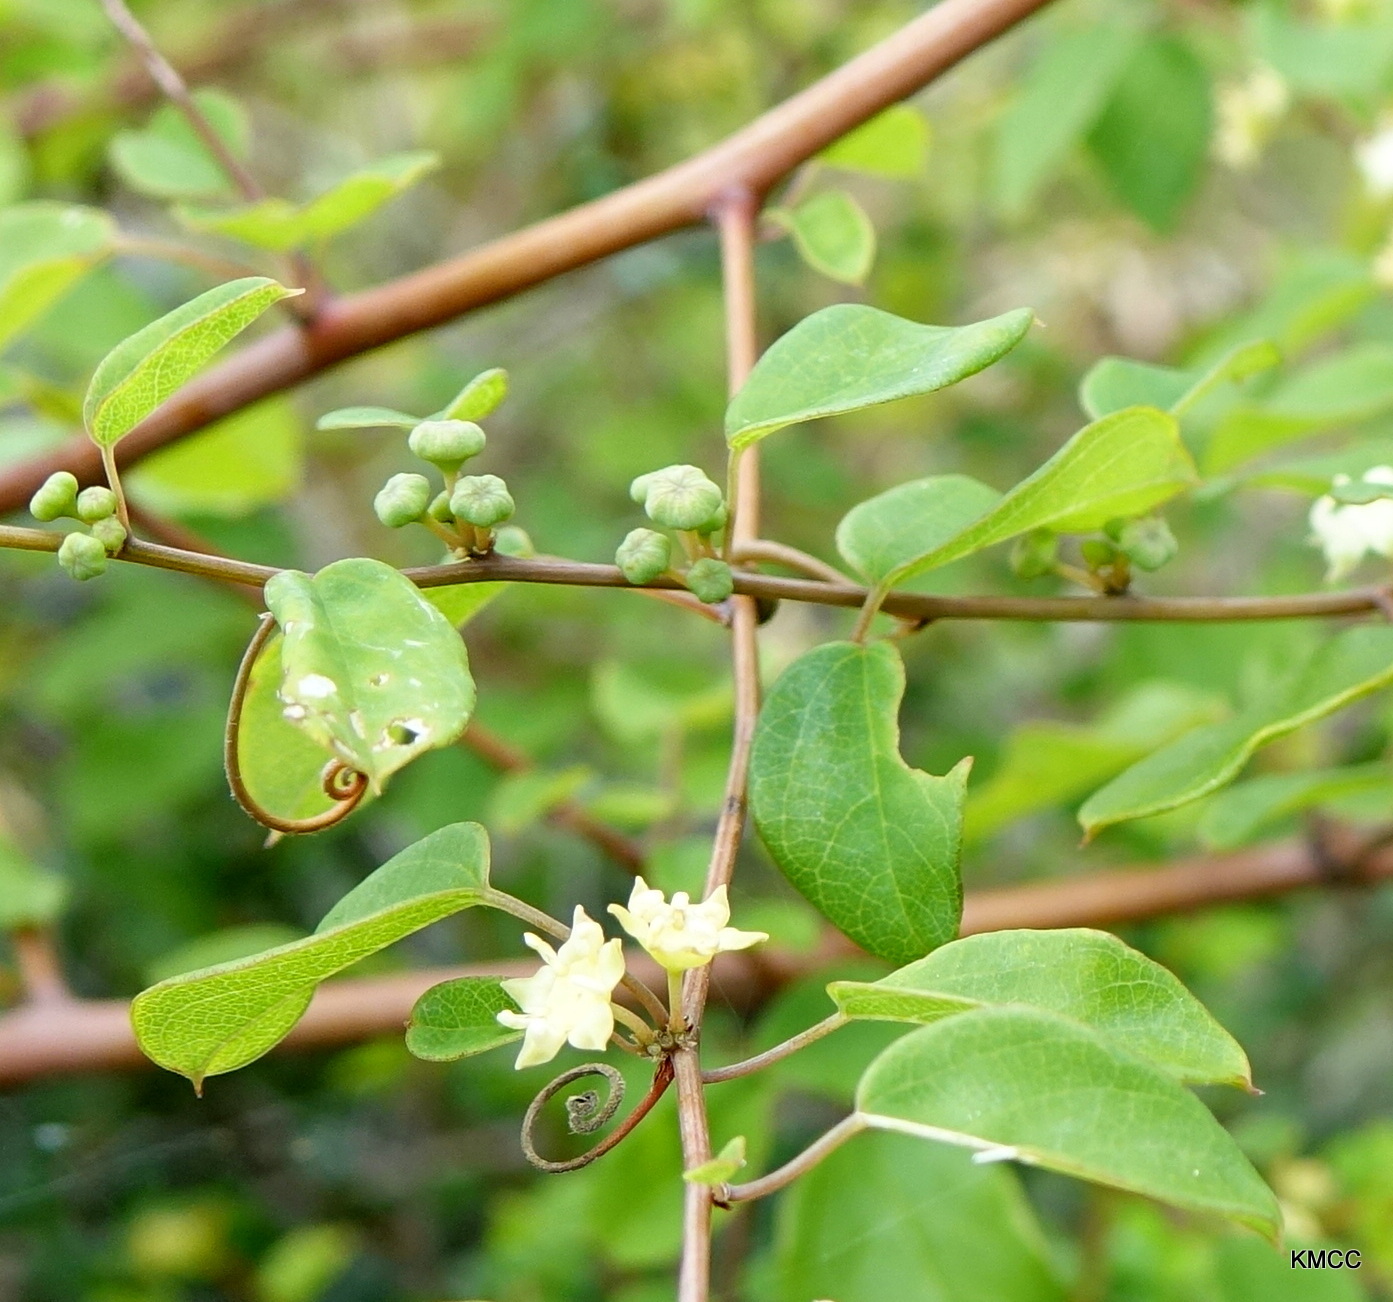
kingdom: Plantae
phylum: Tracheophyta
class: Magnoliopsida
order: Rosales
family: Rhamnaceae
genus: Helinus
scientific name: Helinus integrifolius
